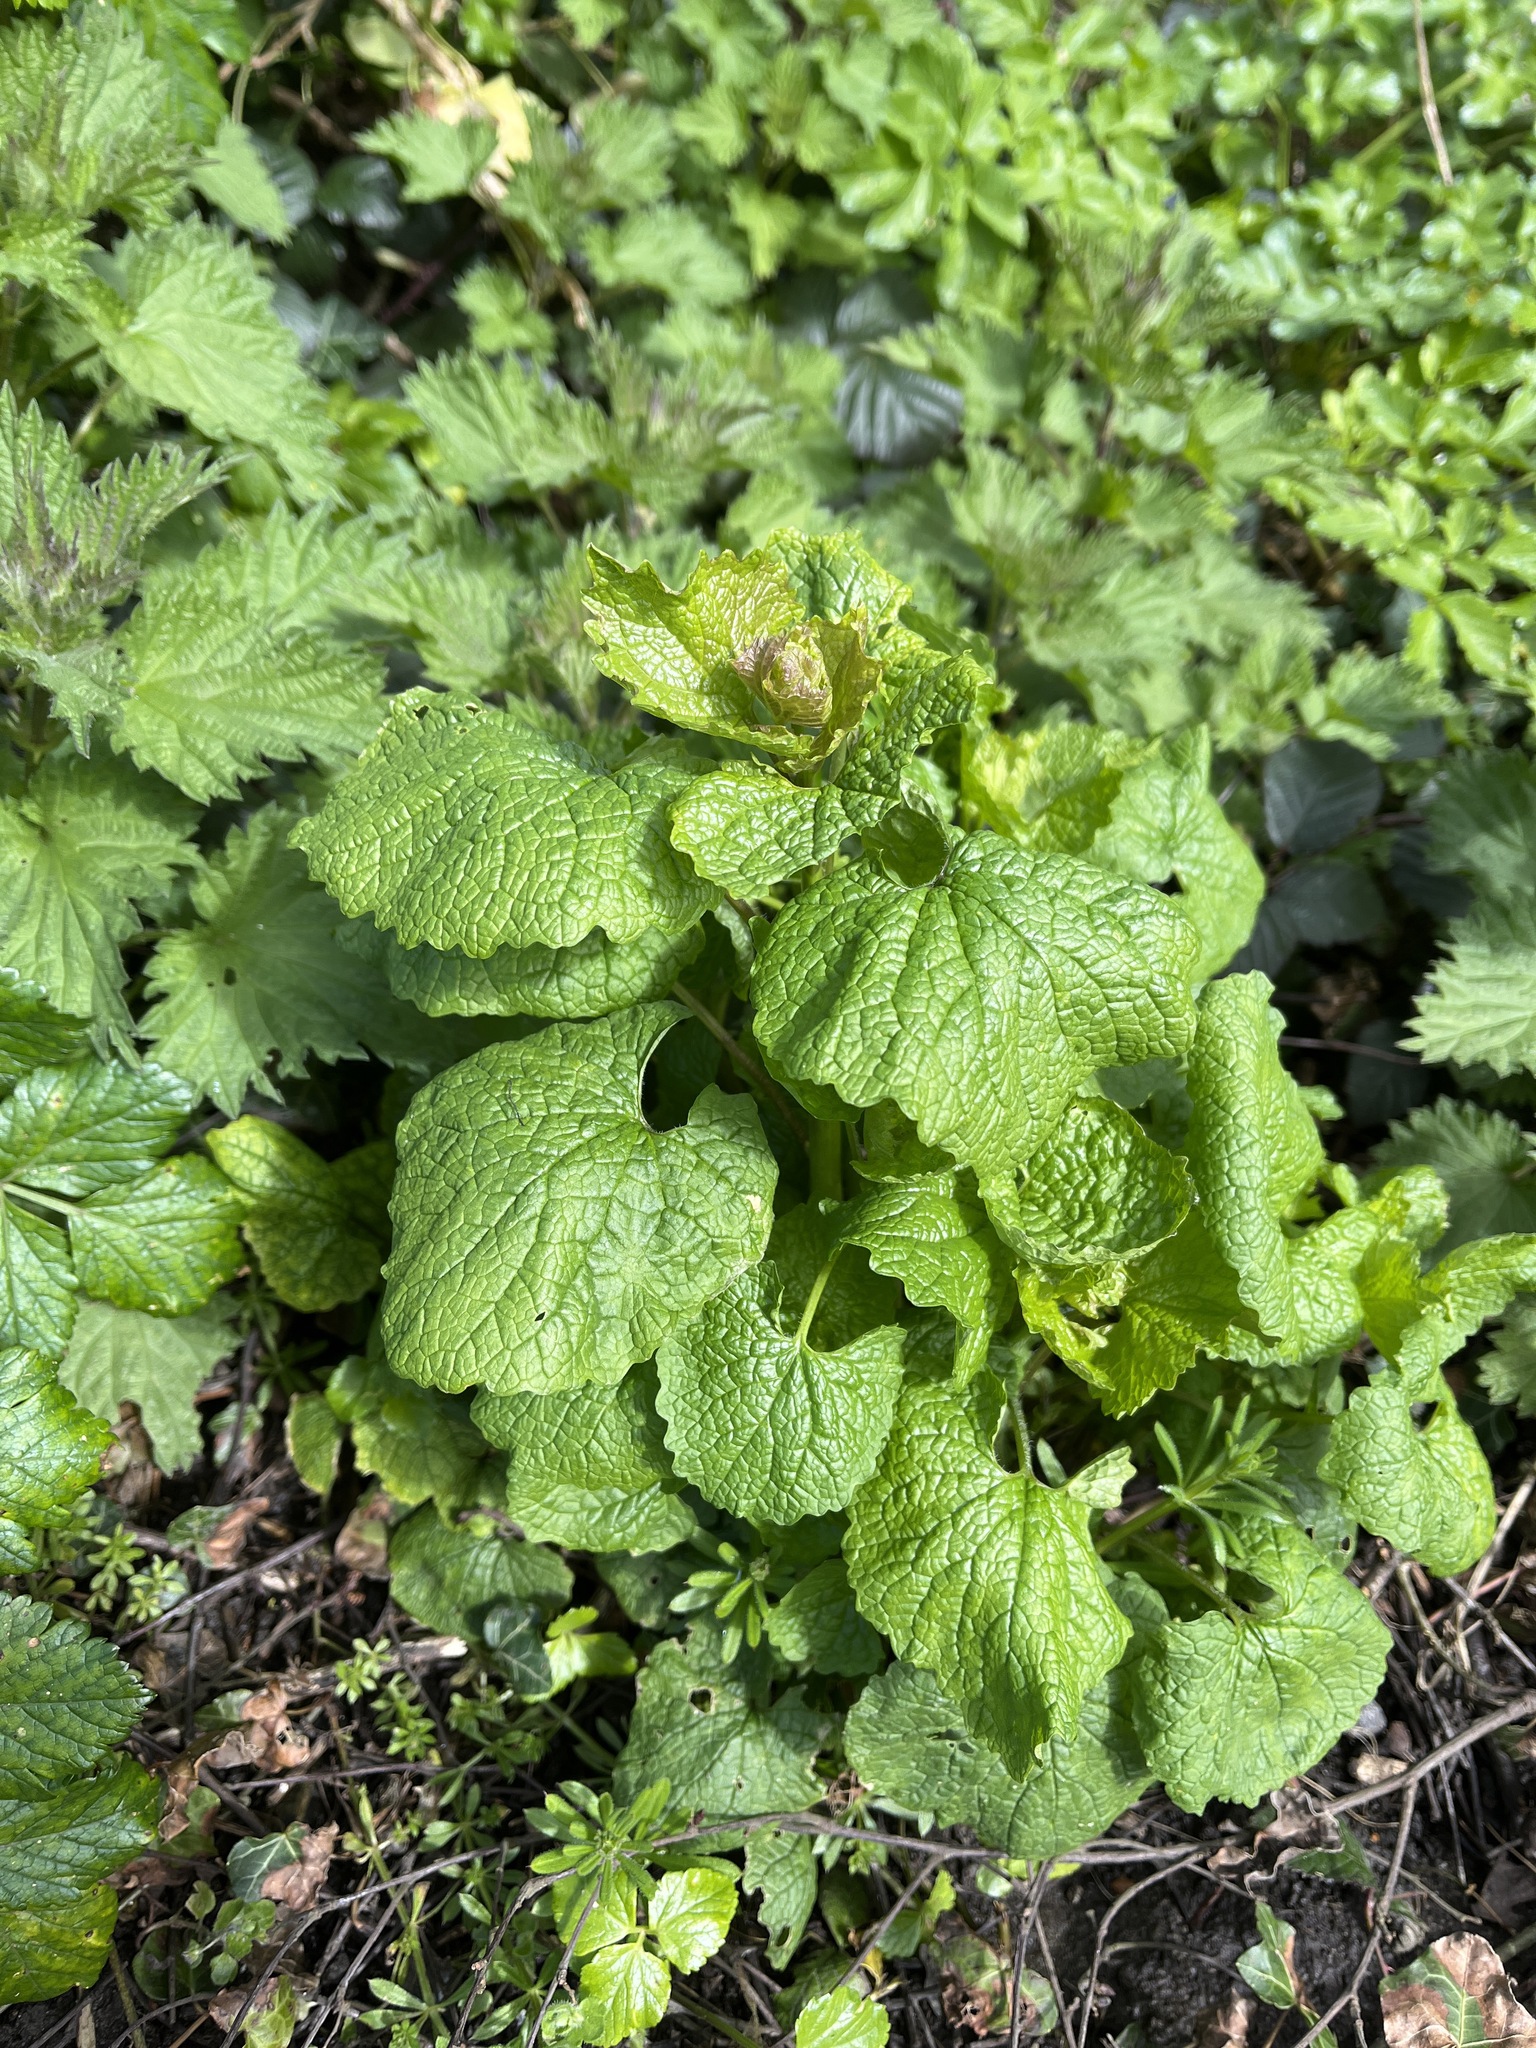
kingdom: Plantae
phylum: Tracheophyta
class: Magnoliopsida
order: Brassicales
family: Brassicaceae
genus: Alliaria
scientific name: Alliaria petiolata
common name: Garlic mustard
